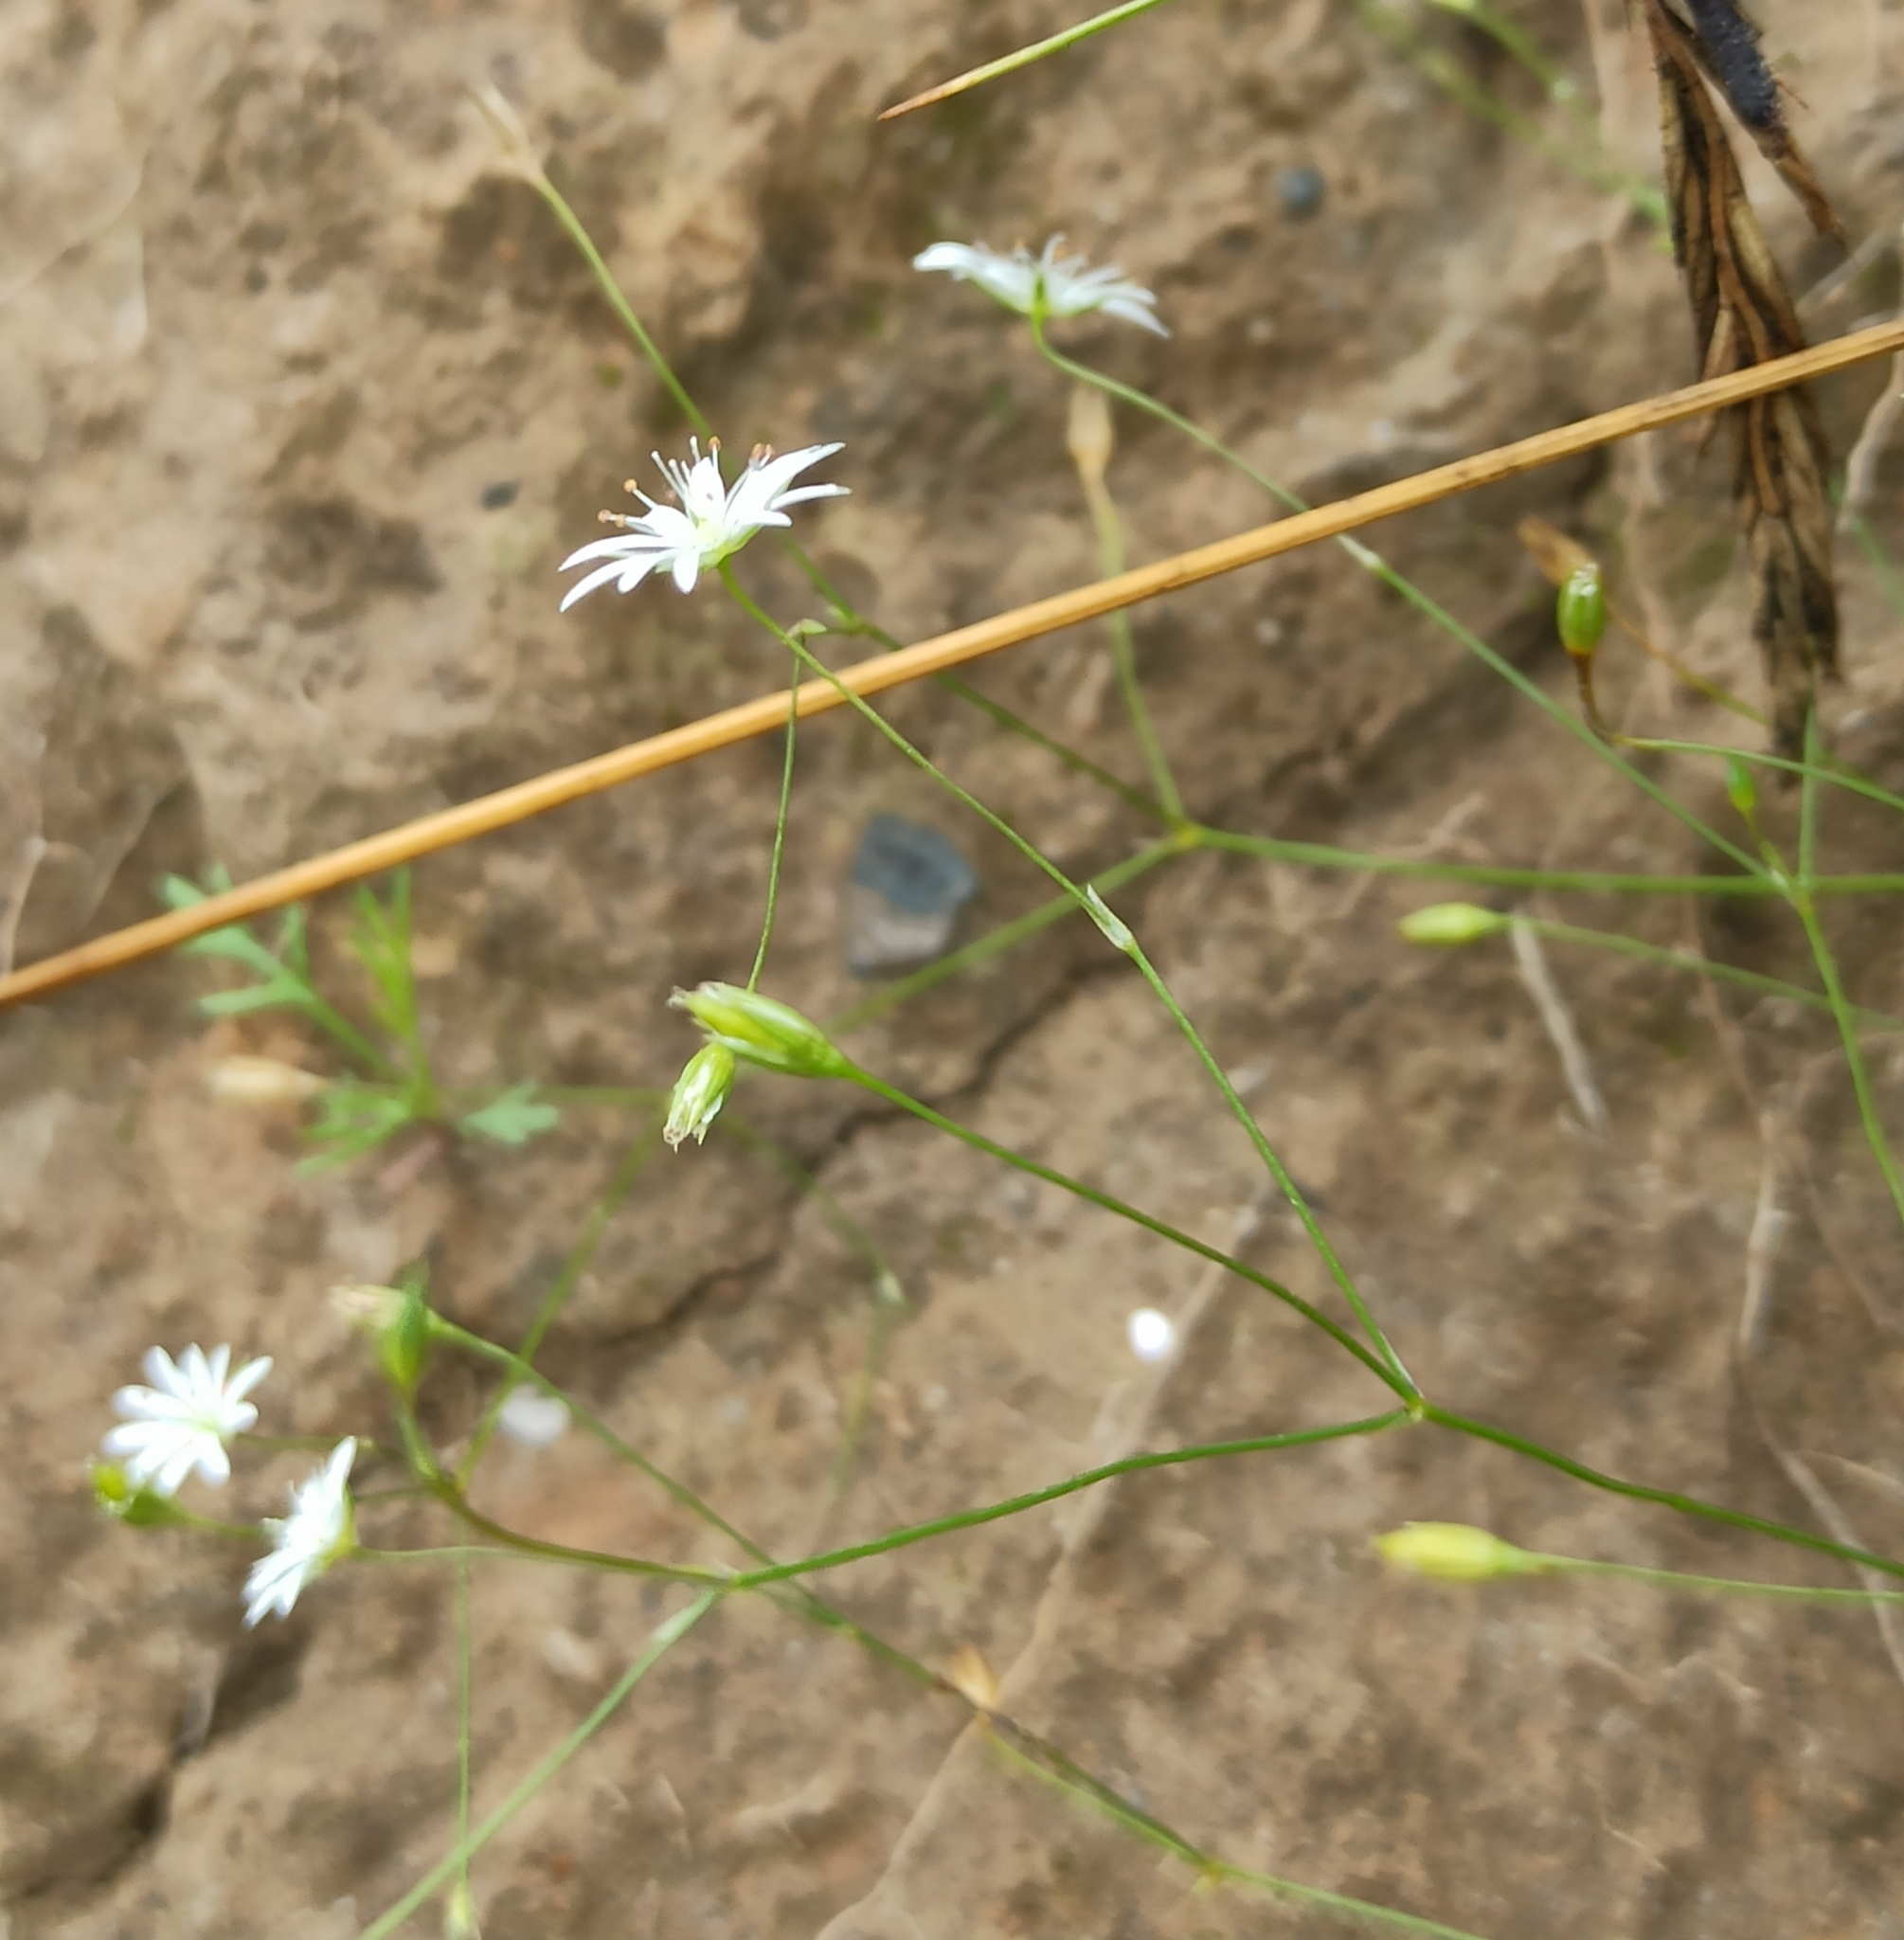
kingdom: Plantae
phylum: Tracheophyta
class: Magnoliopsida
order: Caryophyllales
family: Caryophyllaceae
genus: Stellaria
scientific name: Stellaria graminea
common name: Grass-like starwort
